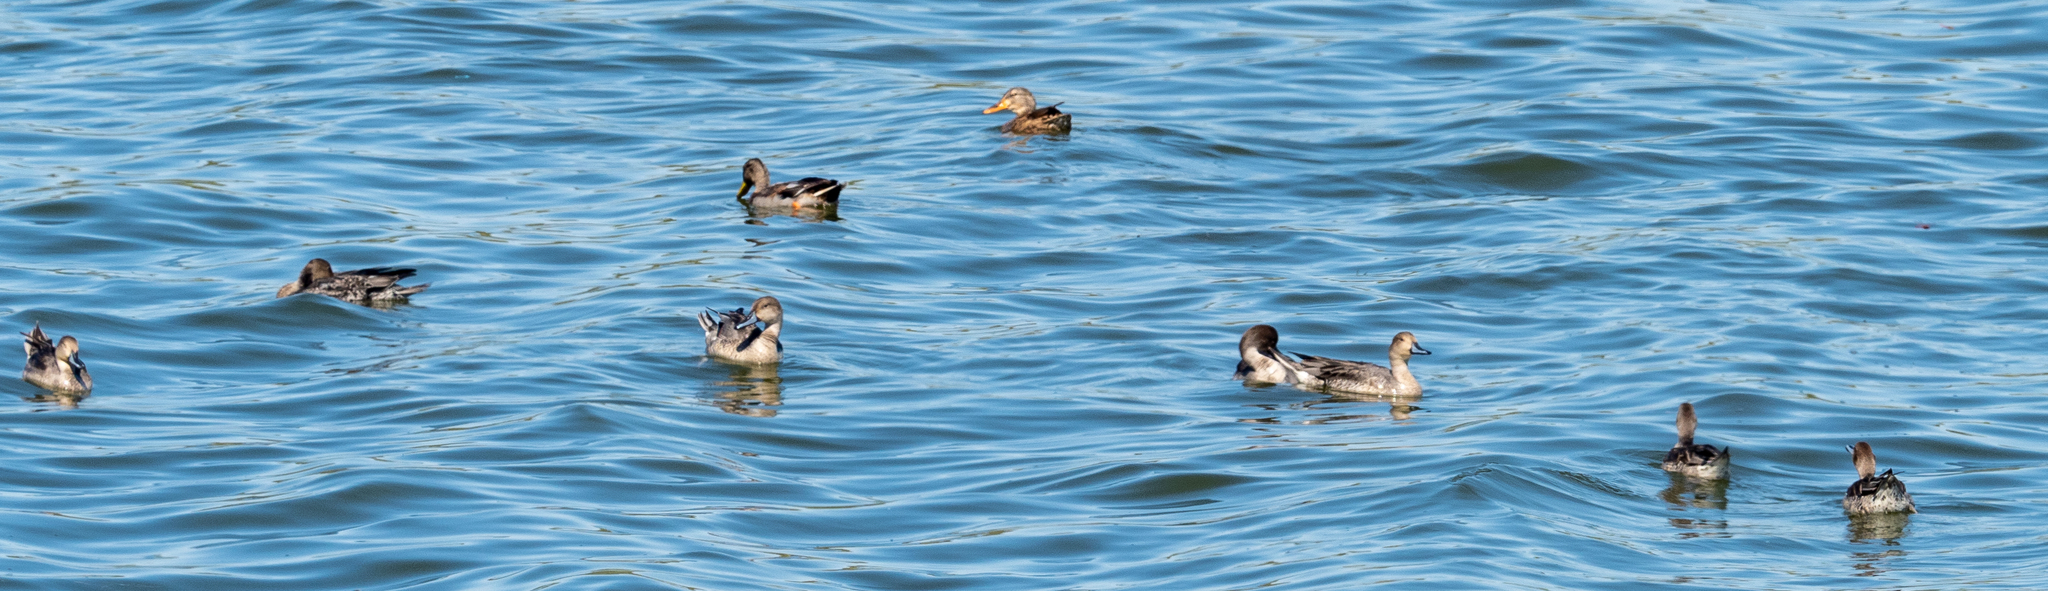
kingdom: Animalia
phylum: Chordata
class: Aves
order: Anseriformes
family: Anatidae
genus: Anas
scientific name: Anas acuta
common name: Northern pintail
